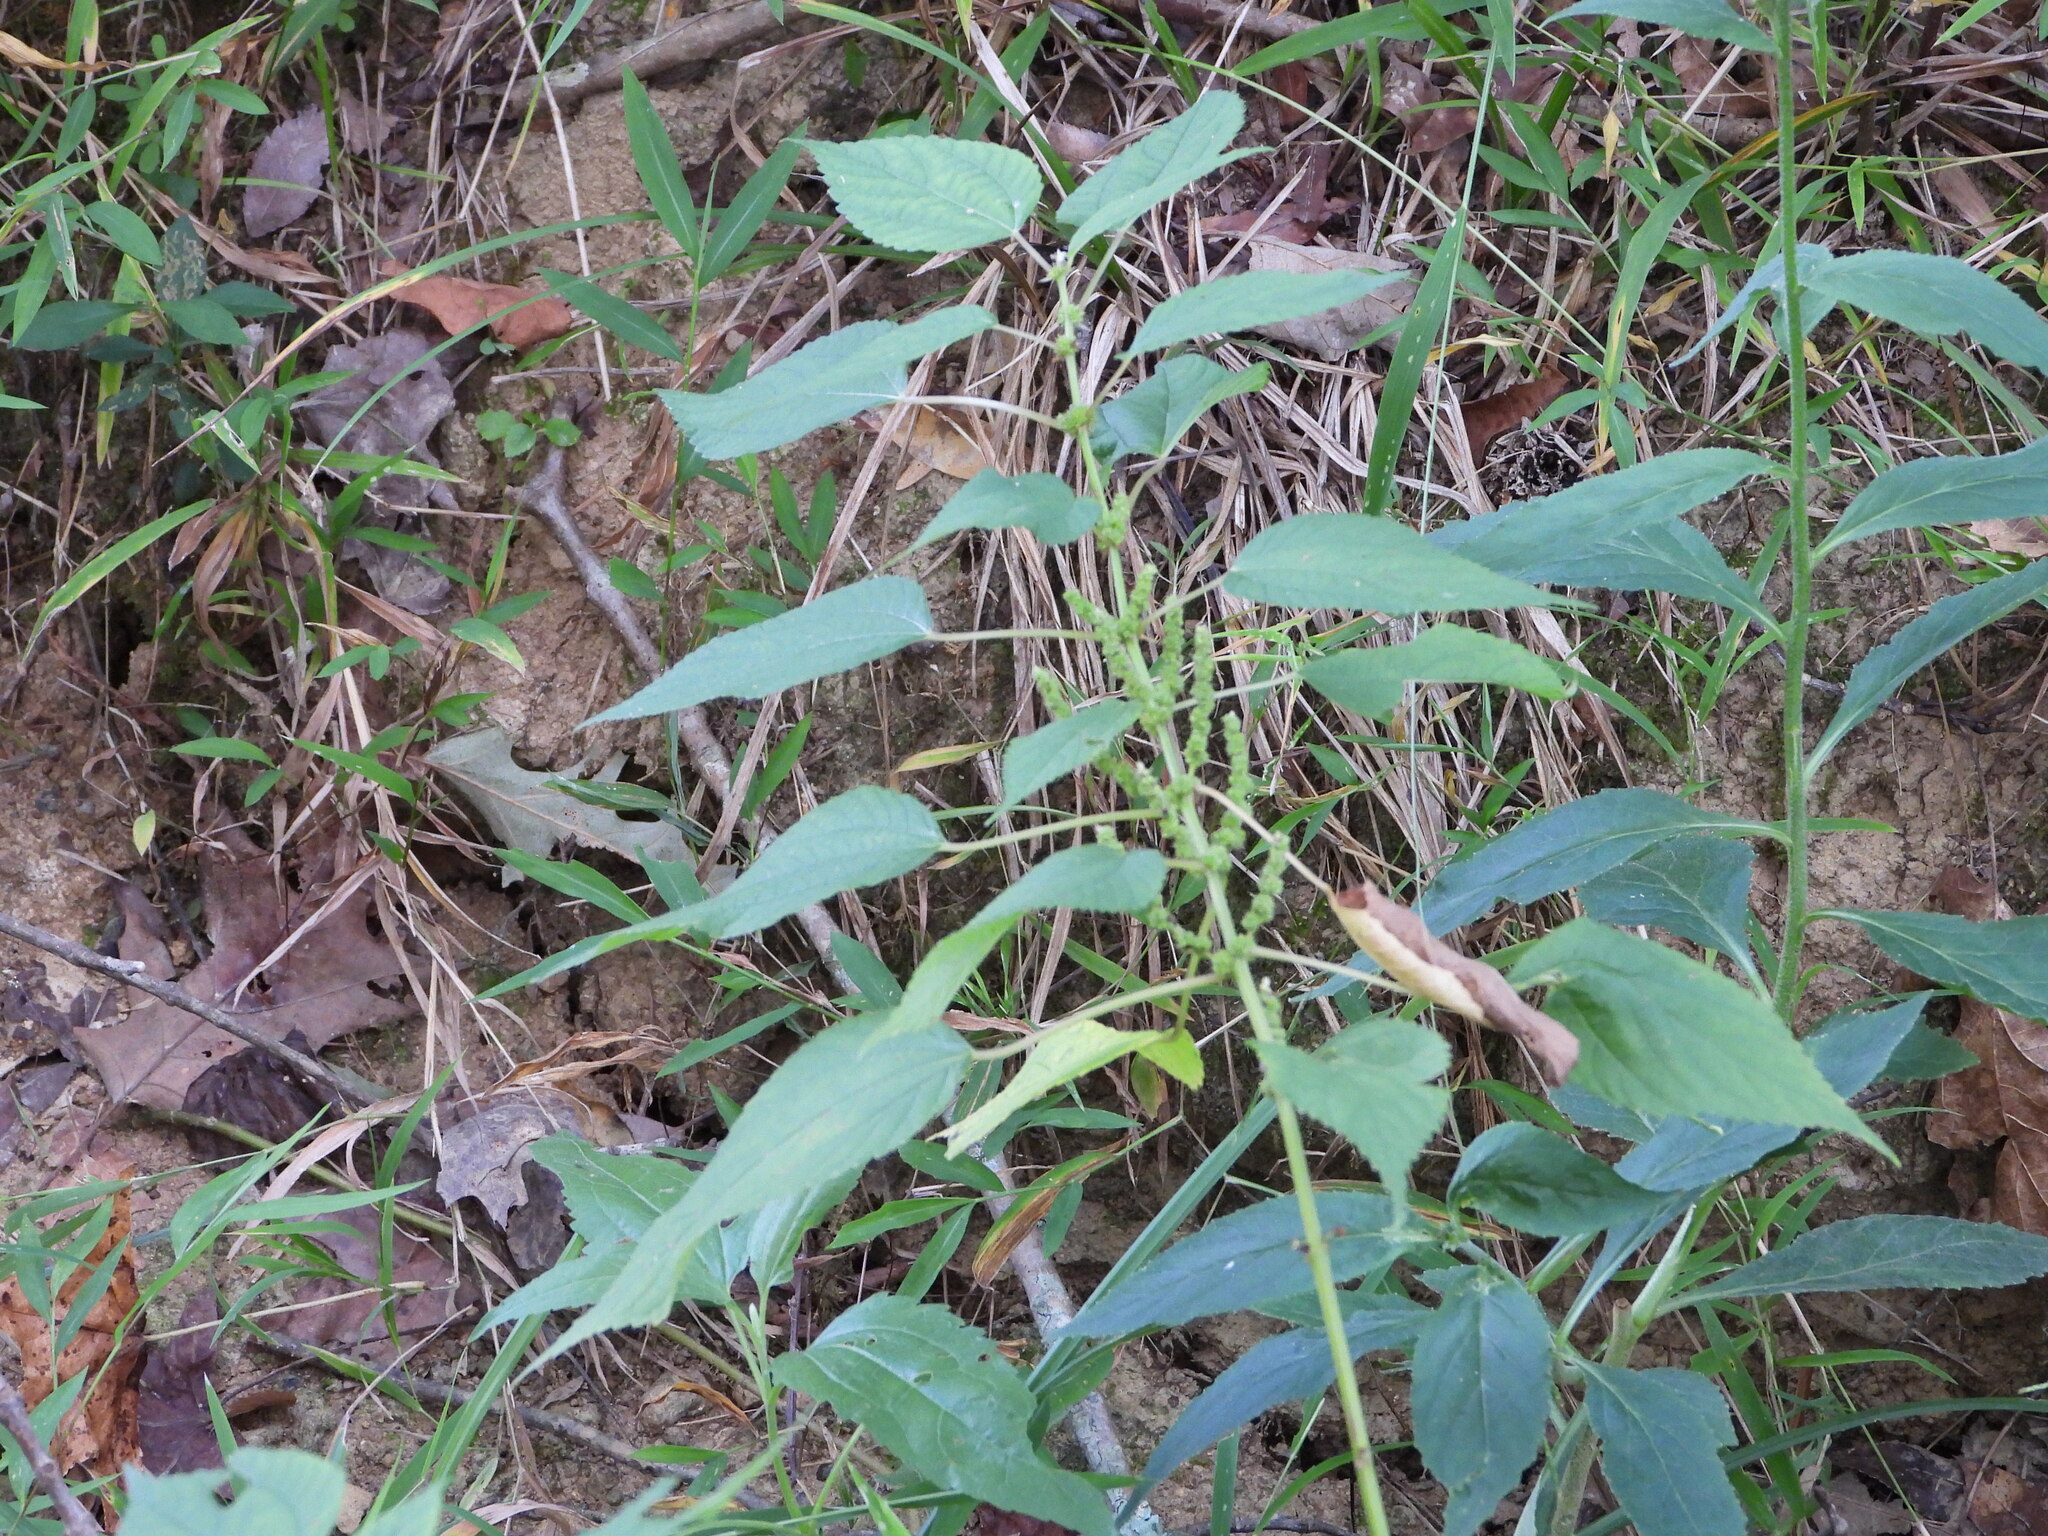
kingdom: Plantae
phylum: Tracheophyta
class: Magnoliopsida
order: Rosales
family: Urticaceae
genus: Boehmeria
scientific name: Boehmeria cylindrica
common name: Bog-hemp
